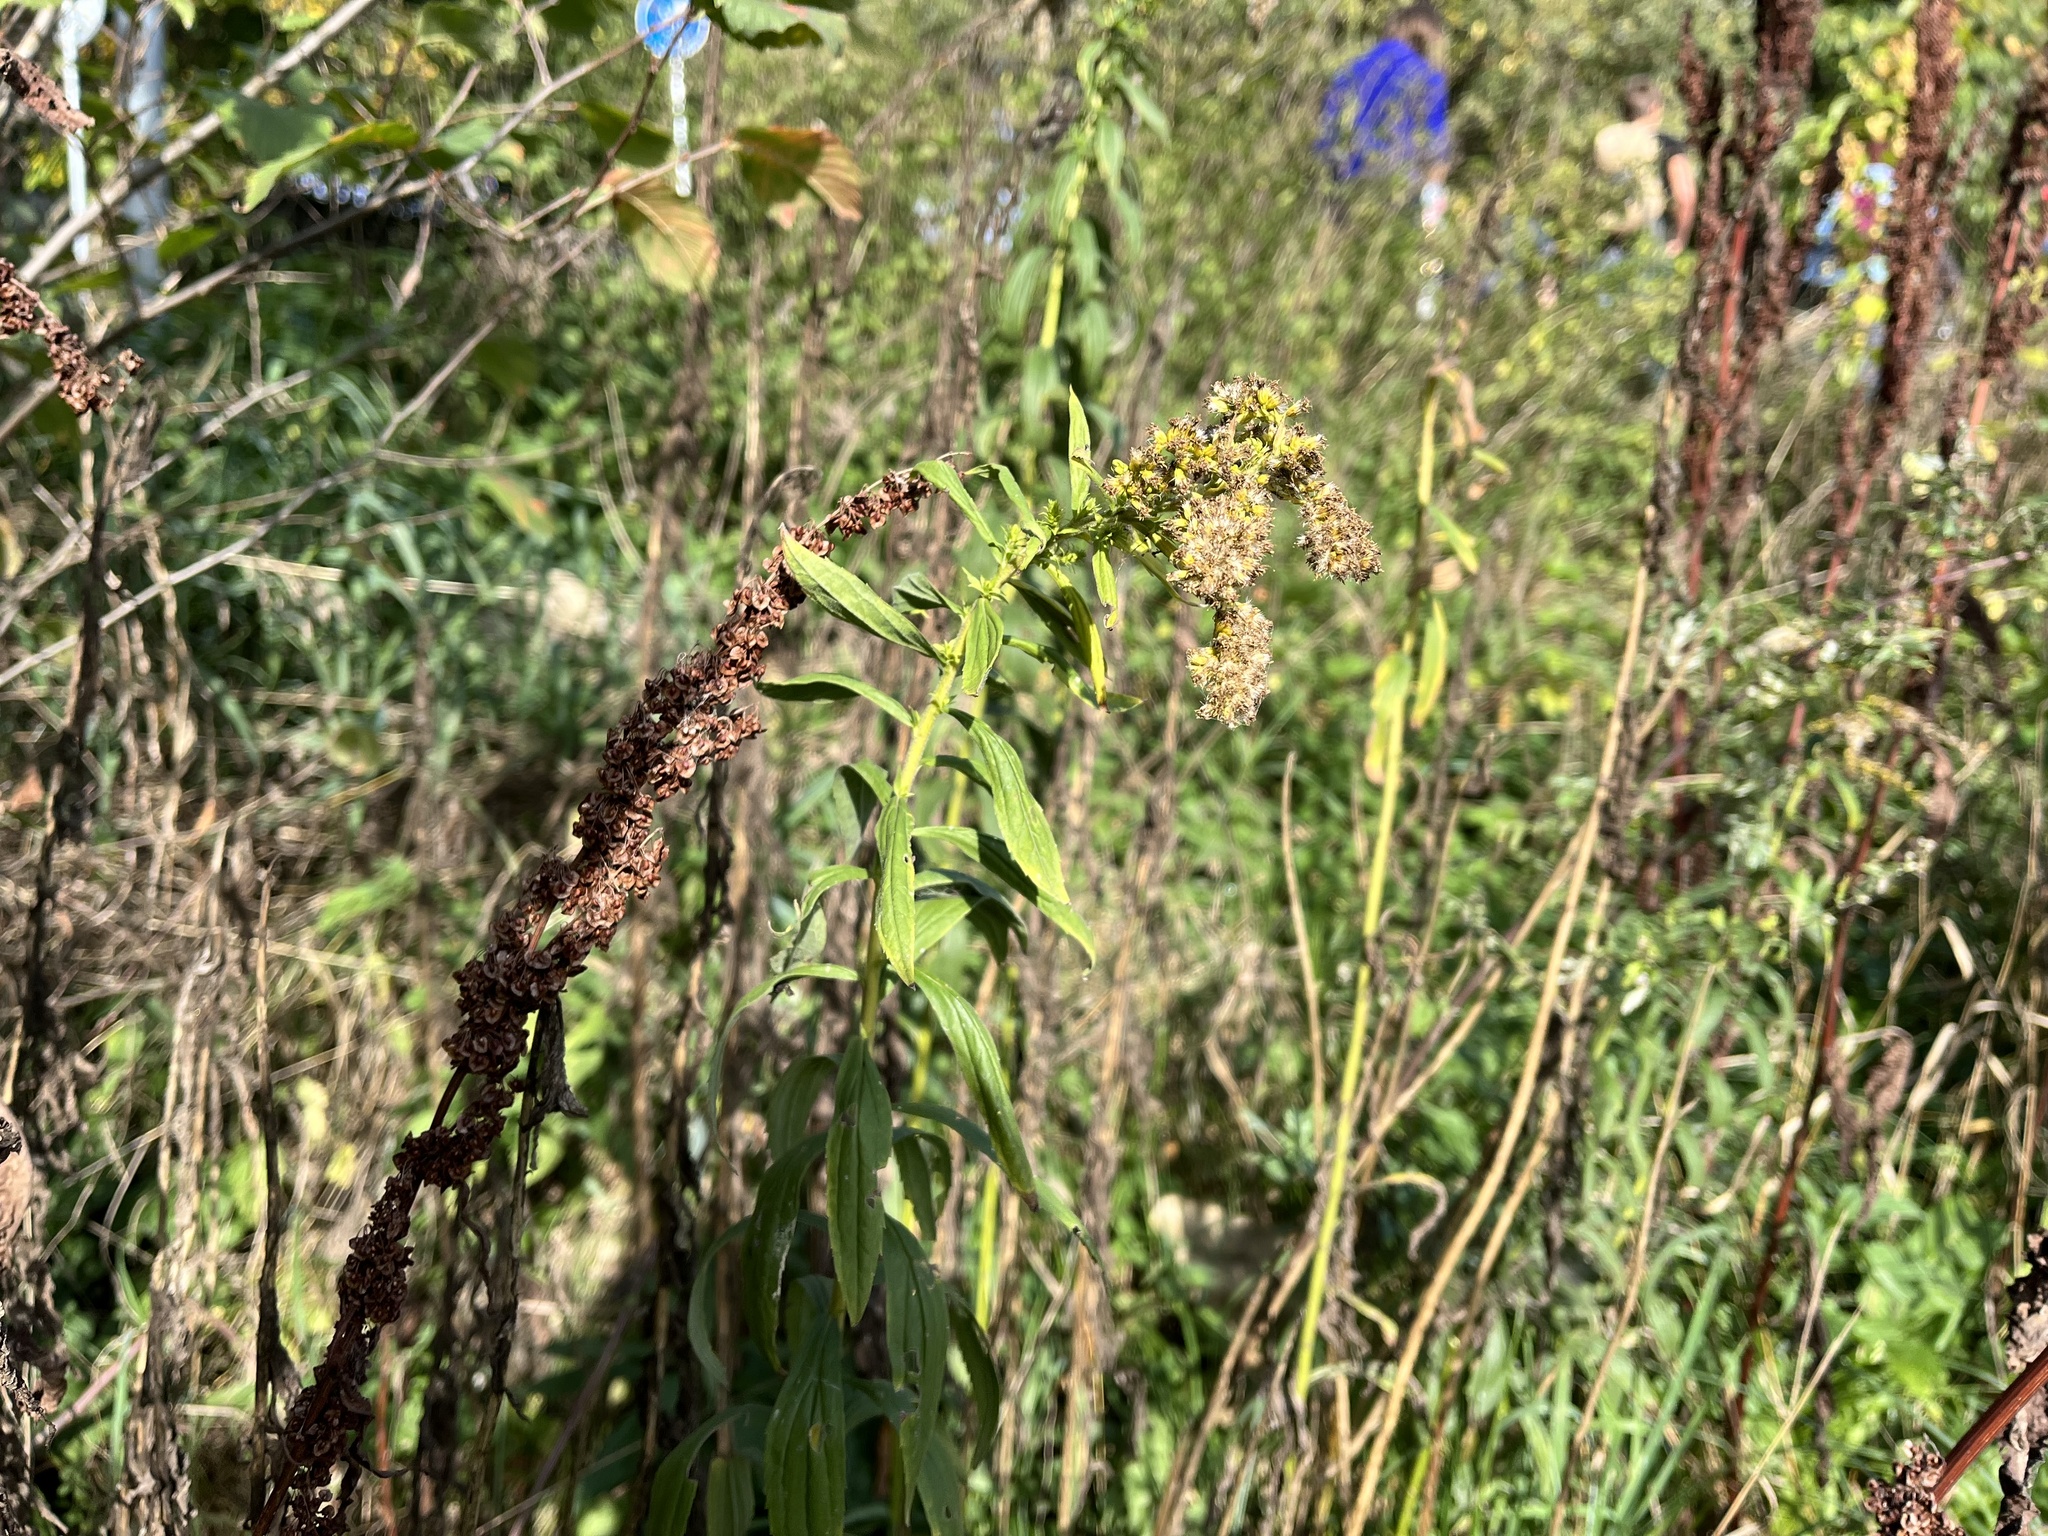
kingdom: Plantae
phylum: Tracheophyta
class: Magnoliopsida
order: Asterales
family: Asteraceae
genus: Solidago
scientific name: Solidago canadensis
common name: Canada goldenrod
